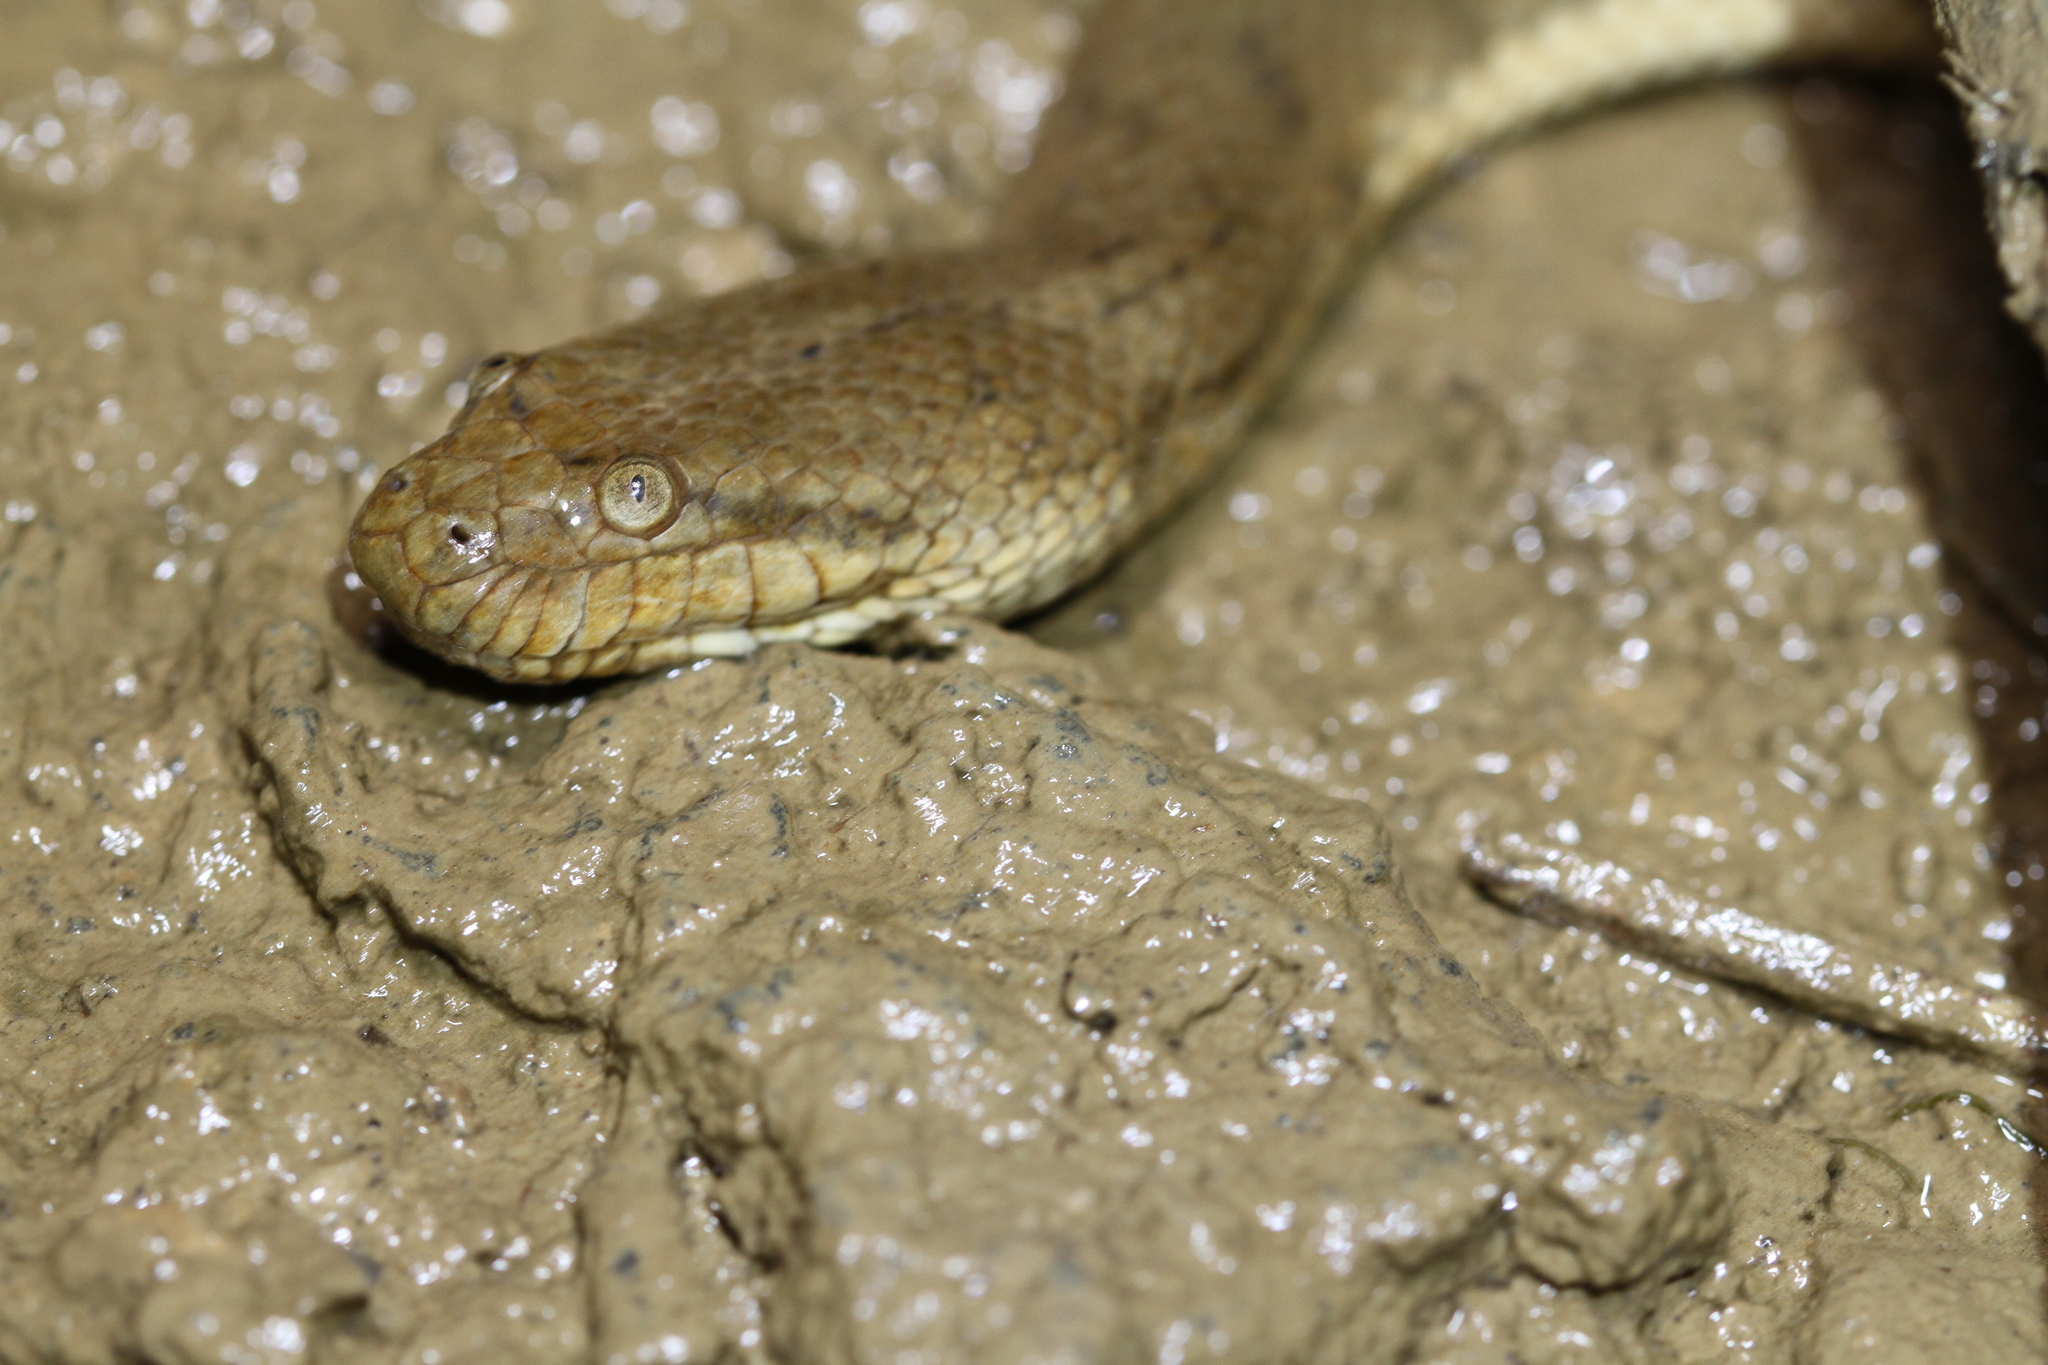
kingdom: Animalia
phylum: Chordata
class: Squamata
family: Homalopsidae
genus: Cerberus
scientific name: Cerberus schneiderii
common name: Southeast asian bockadam
